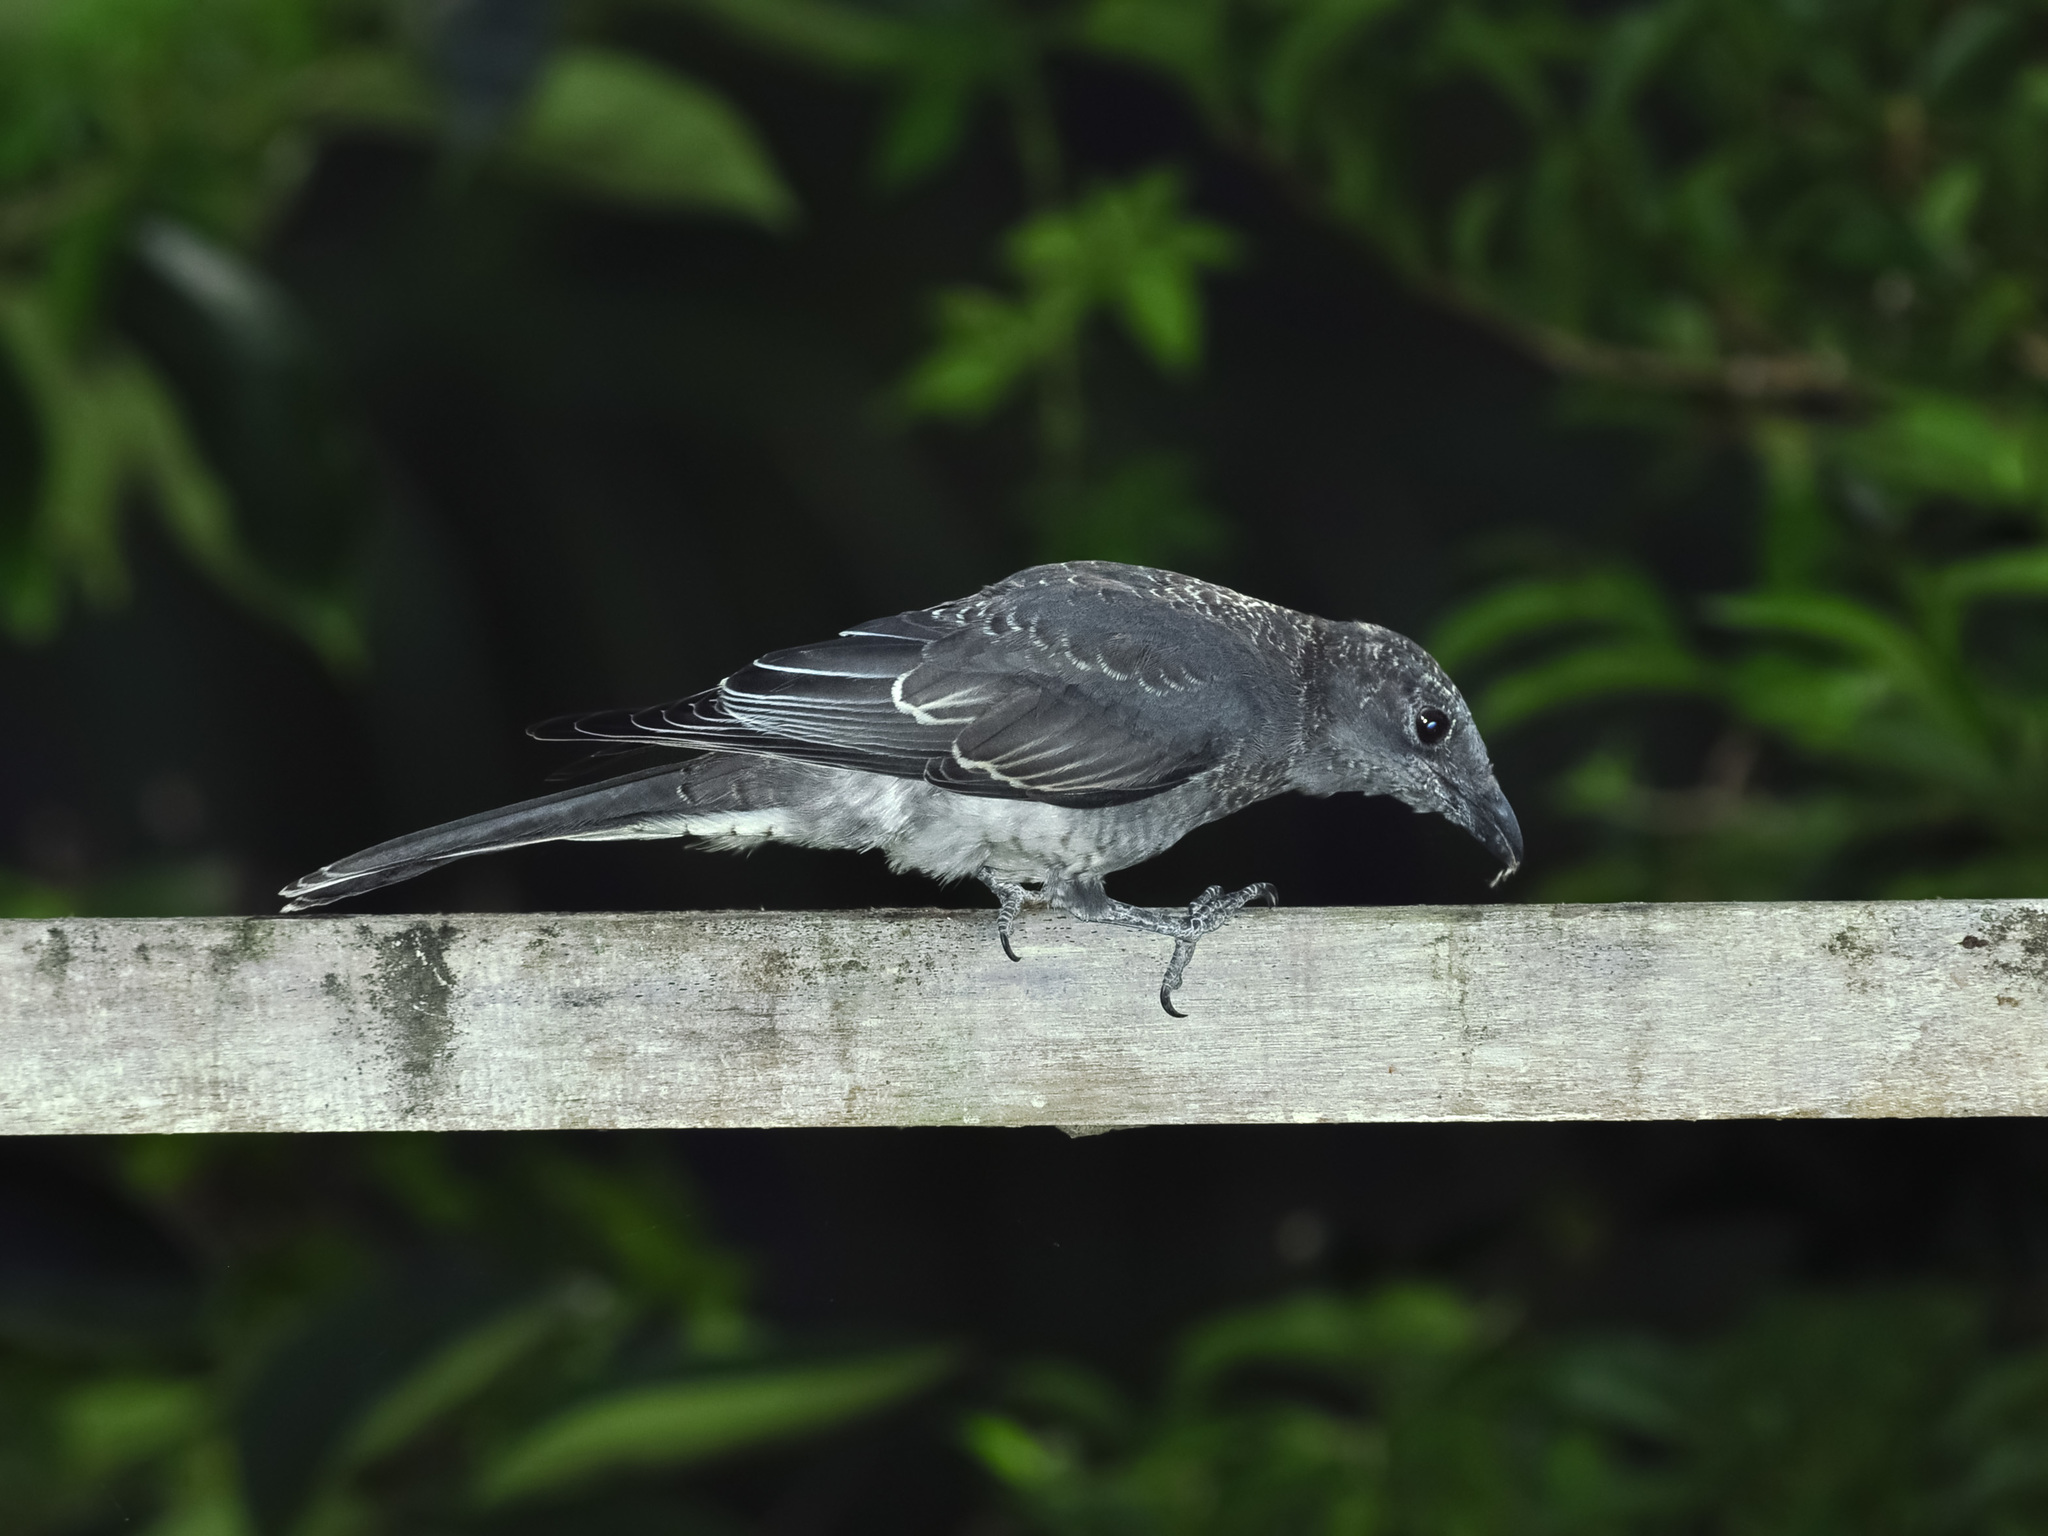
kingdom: Animalia
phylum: Chordata
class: Aves
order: Passeriformes
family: Campephagidae
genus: Coracina
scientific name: Coracina macei
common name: Large cuckooshrike
